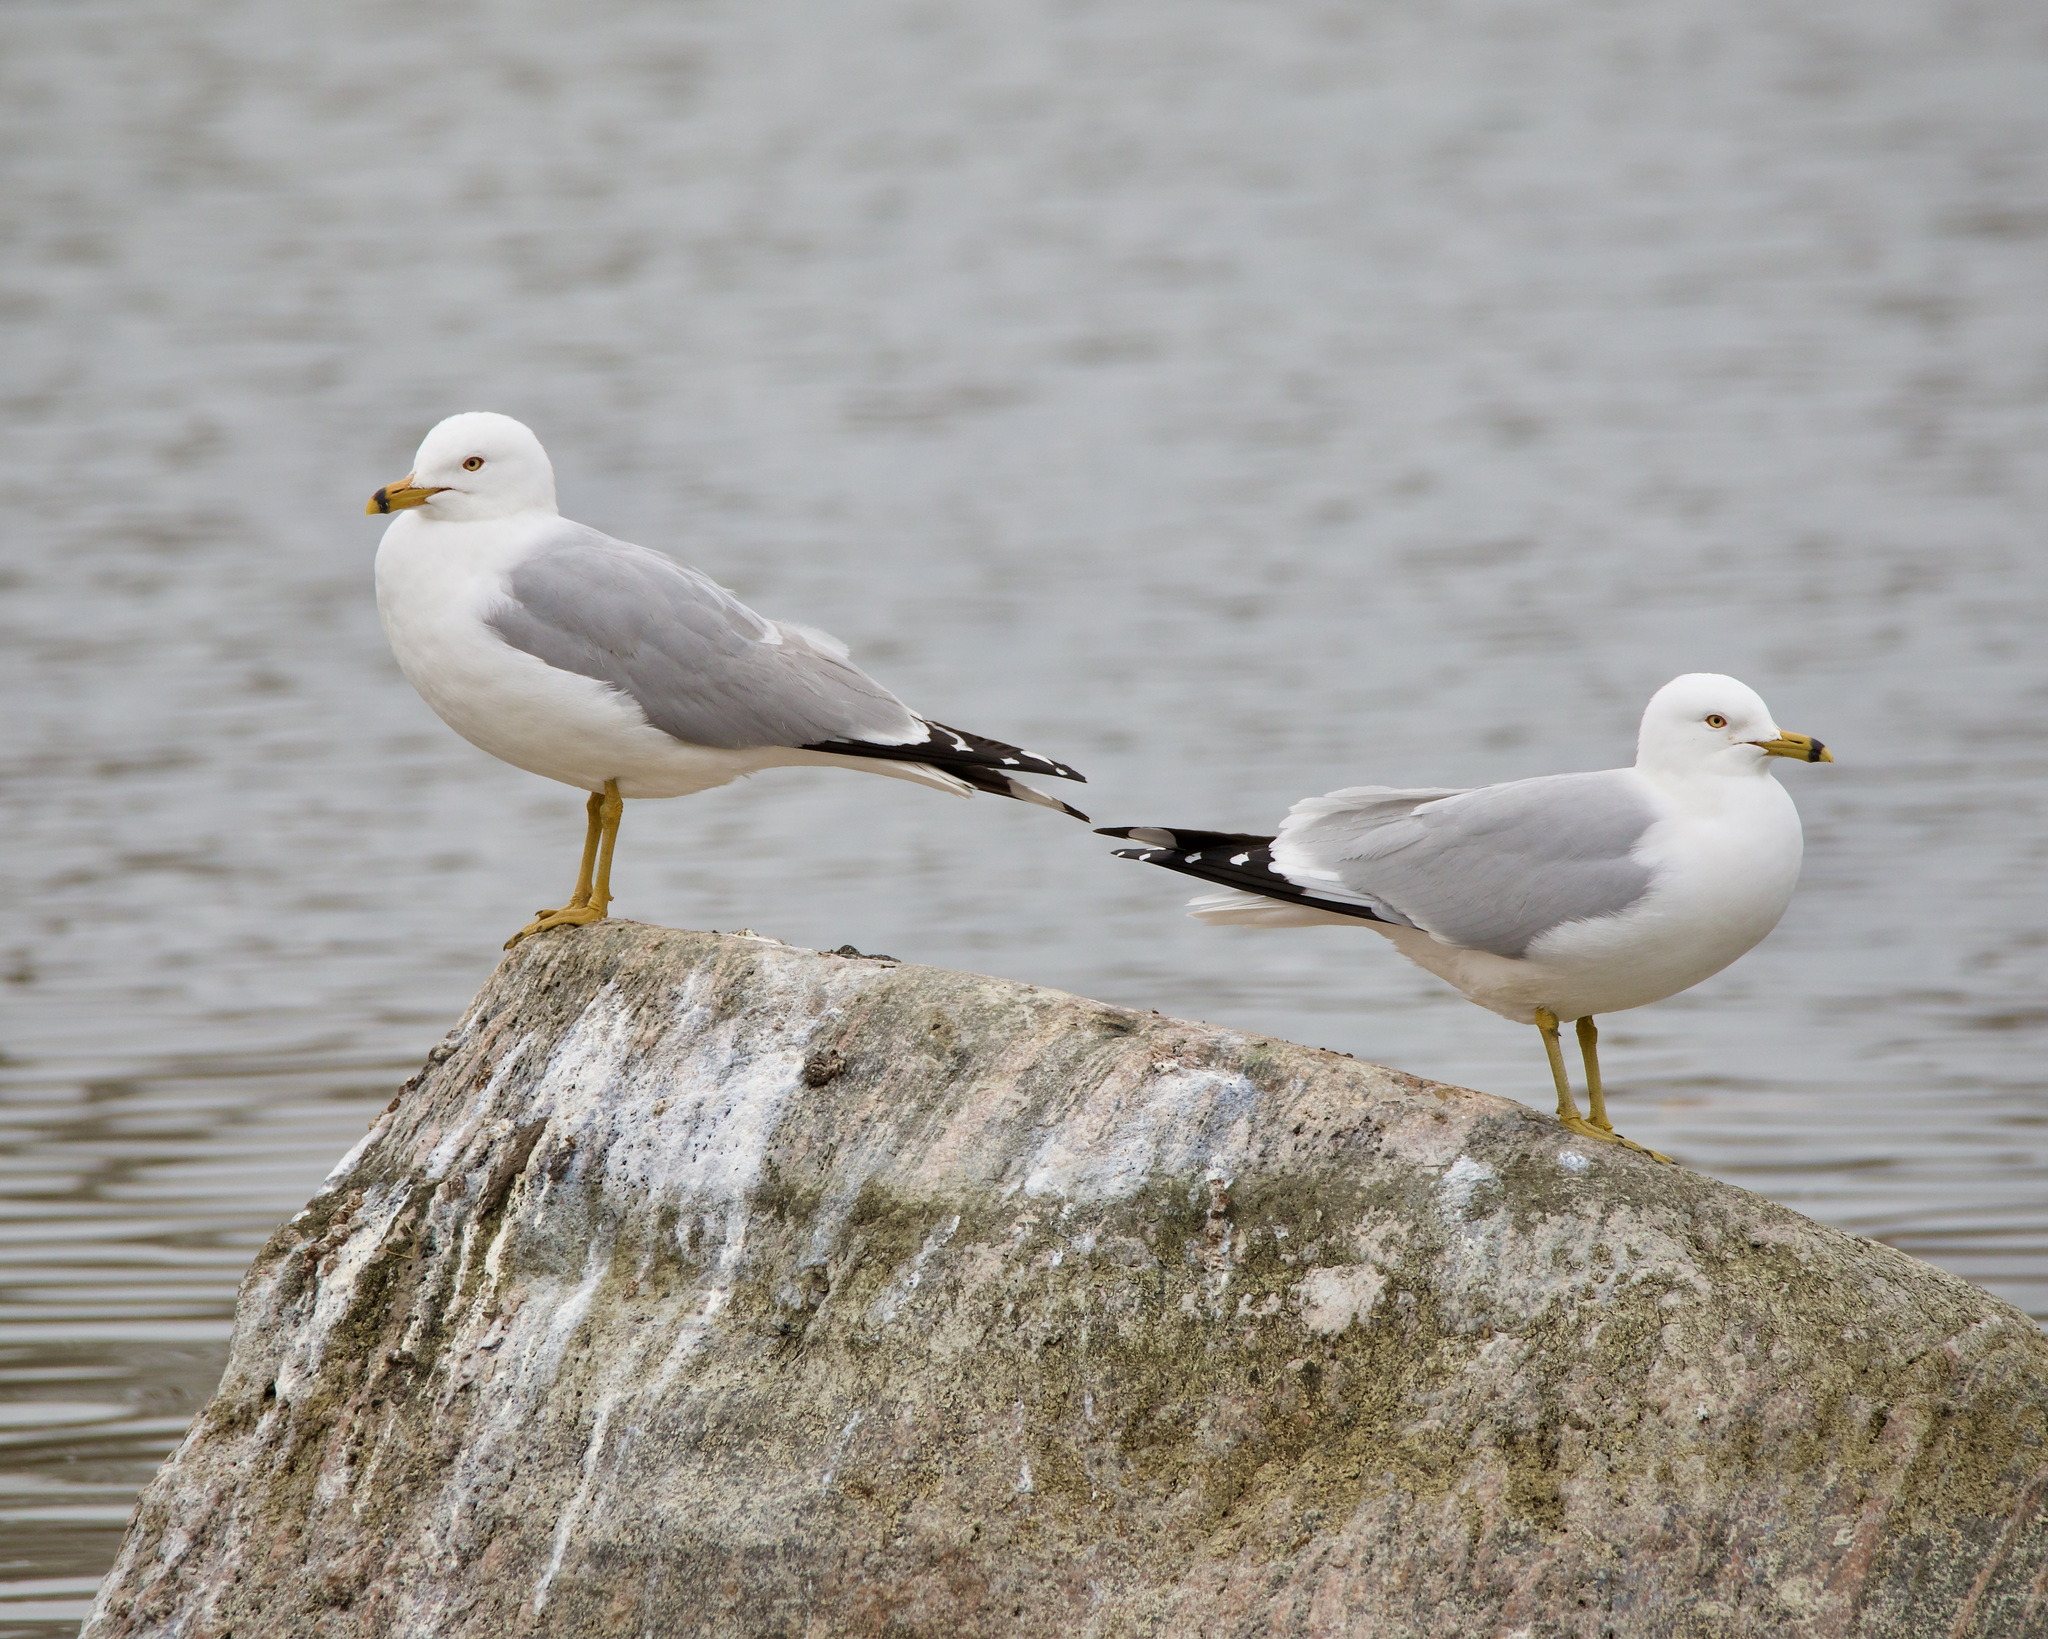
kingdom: Animalia
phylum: Chordata
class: Aves
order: Charadriiformes
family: Laridae
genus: Larus
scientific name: Larus delawarensis
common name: Ring-billed gull
